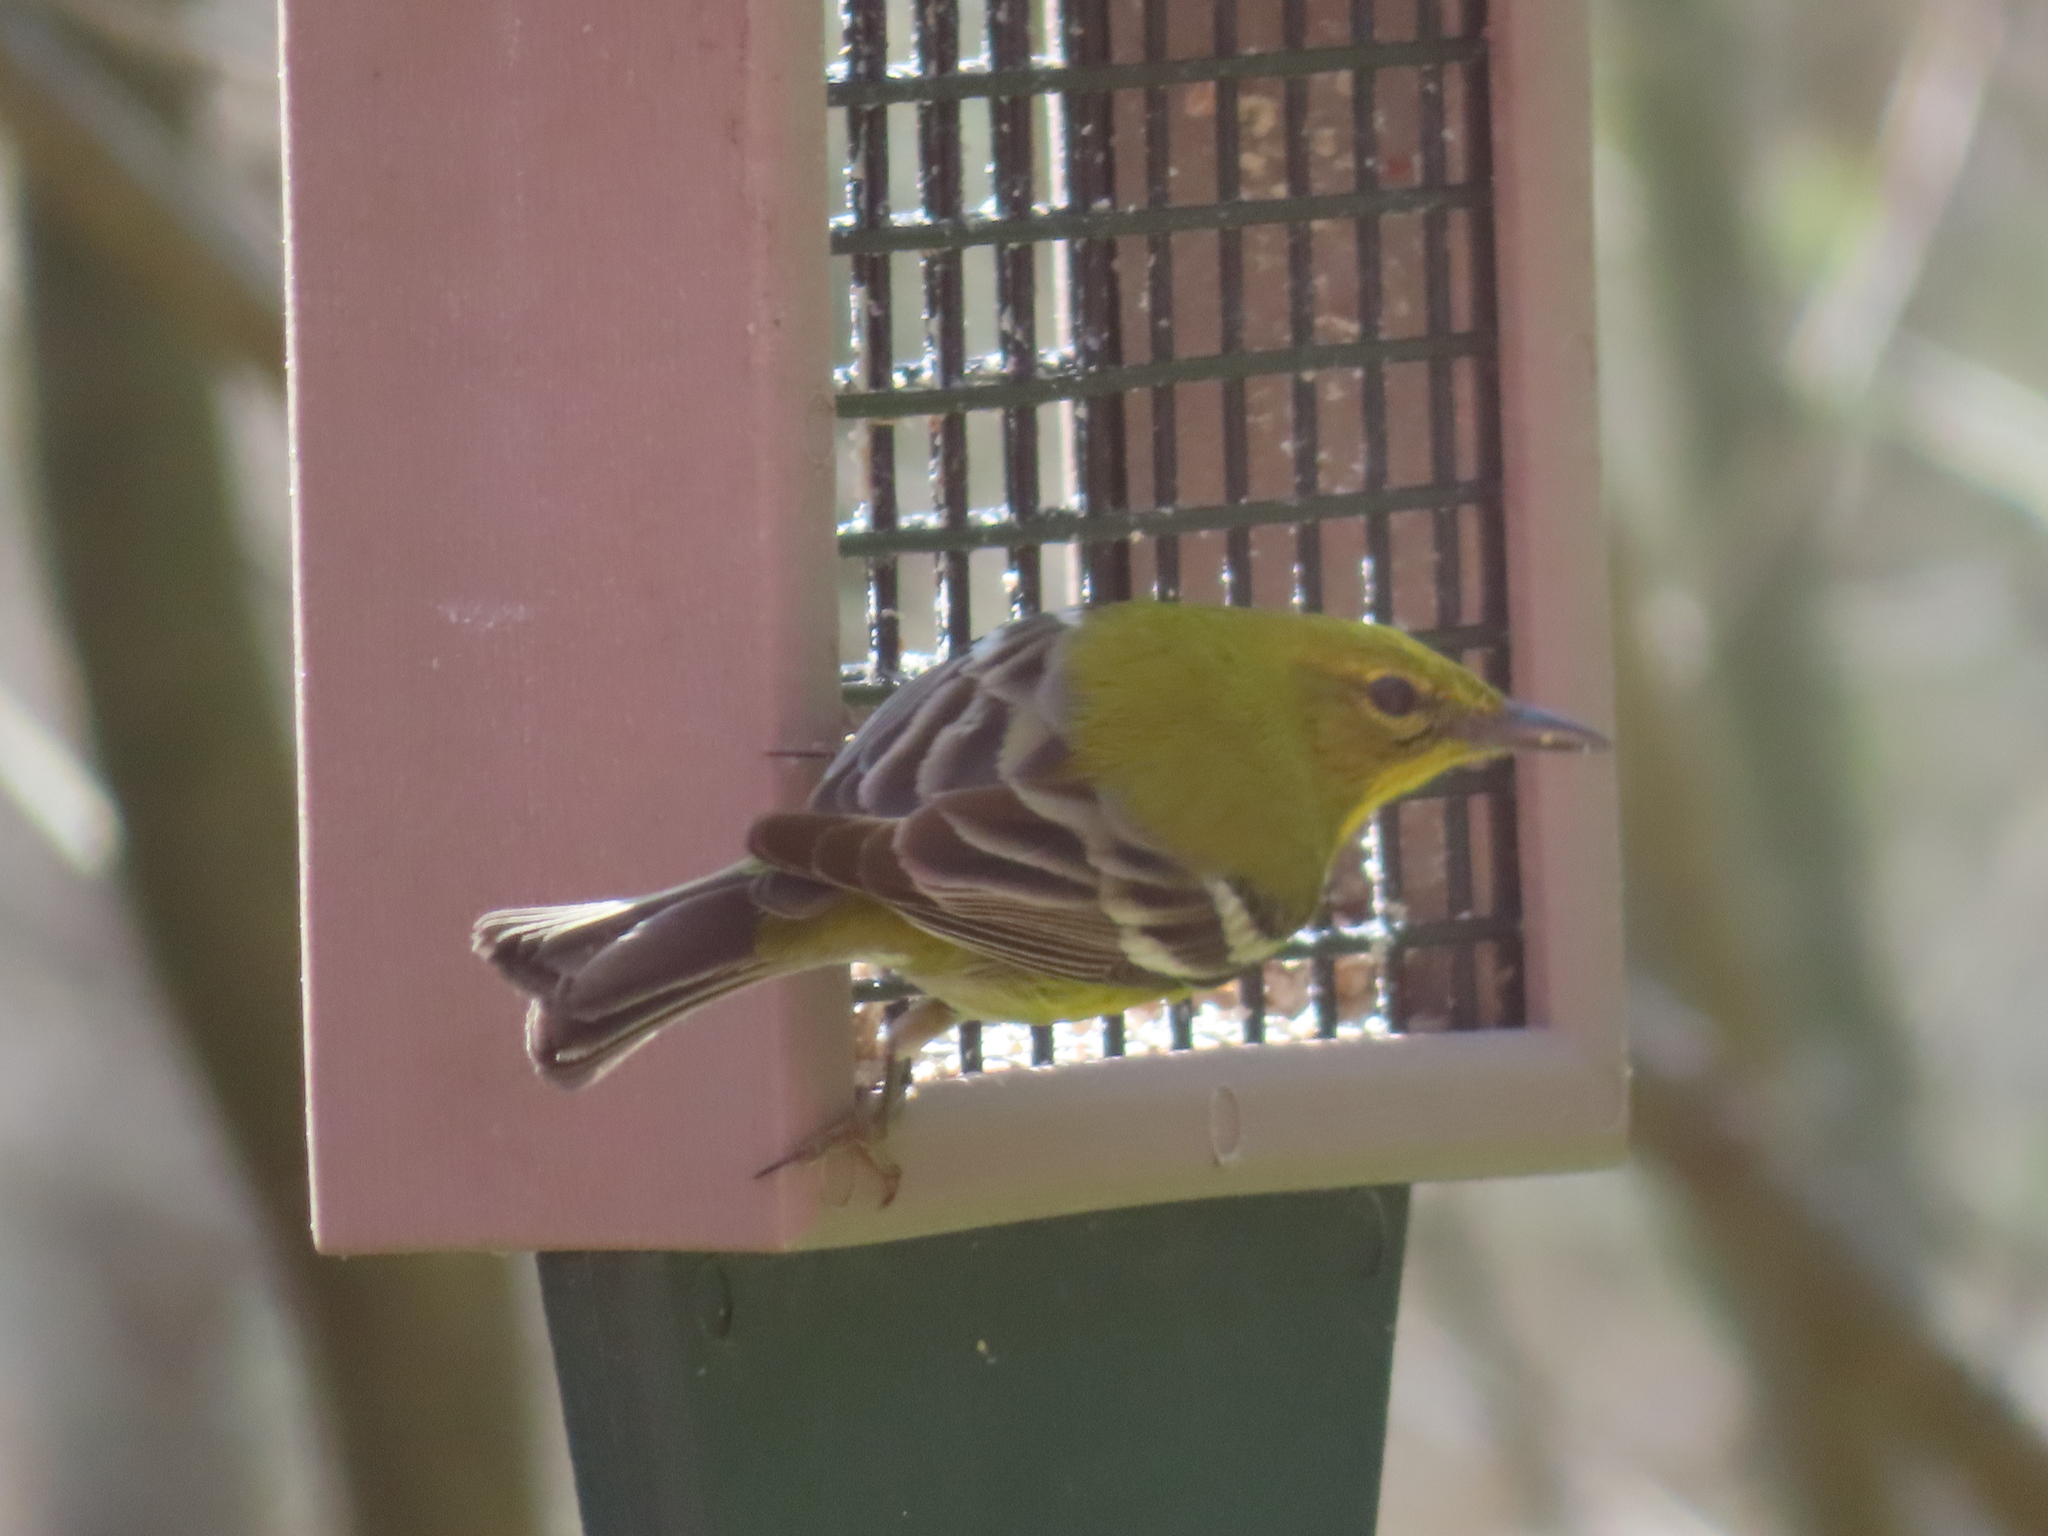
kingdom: Animalia
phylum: Chordata
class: Aves
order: Passeriformes
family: Parulidae
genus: Setophaga
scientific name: Setophaga pinus
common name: Pine warbler
